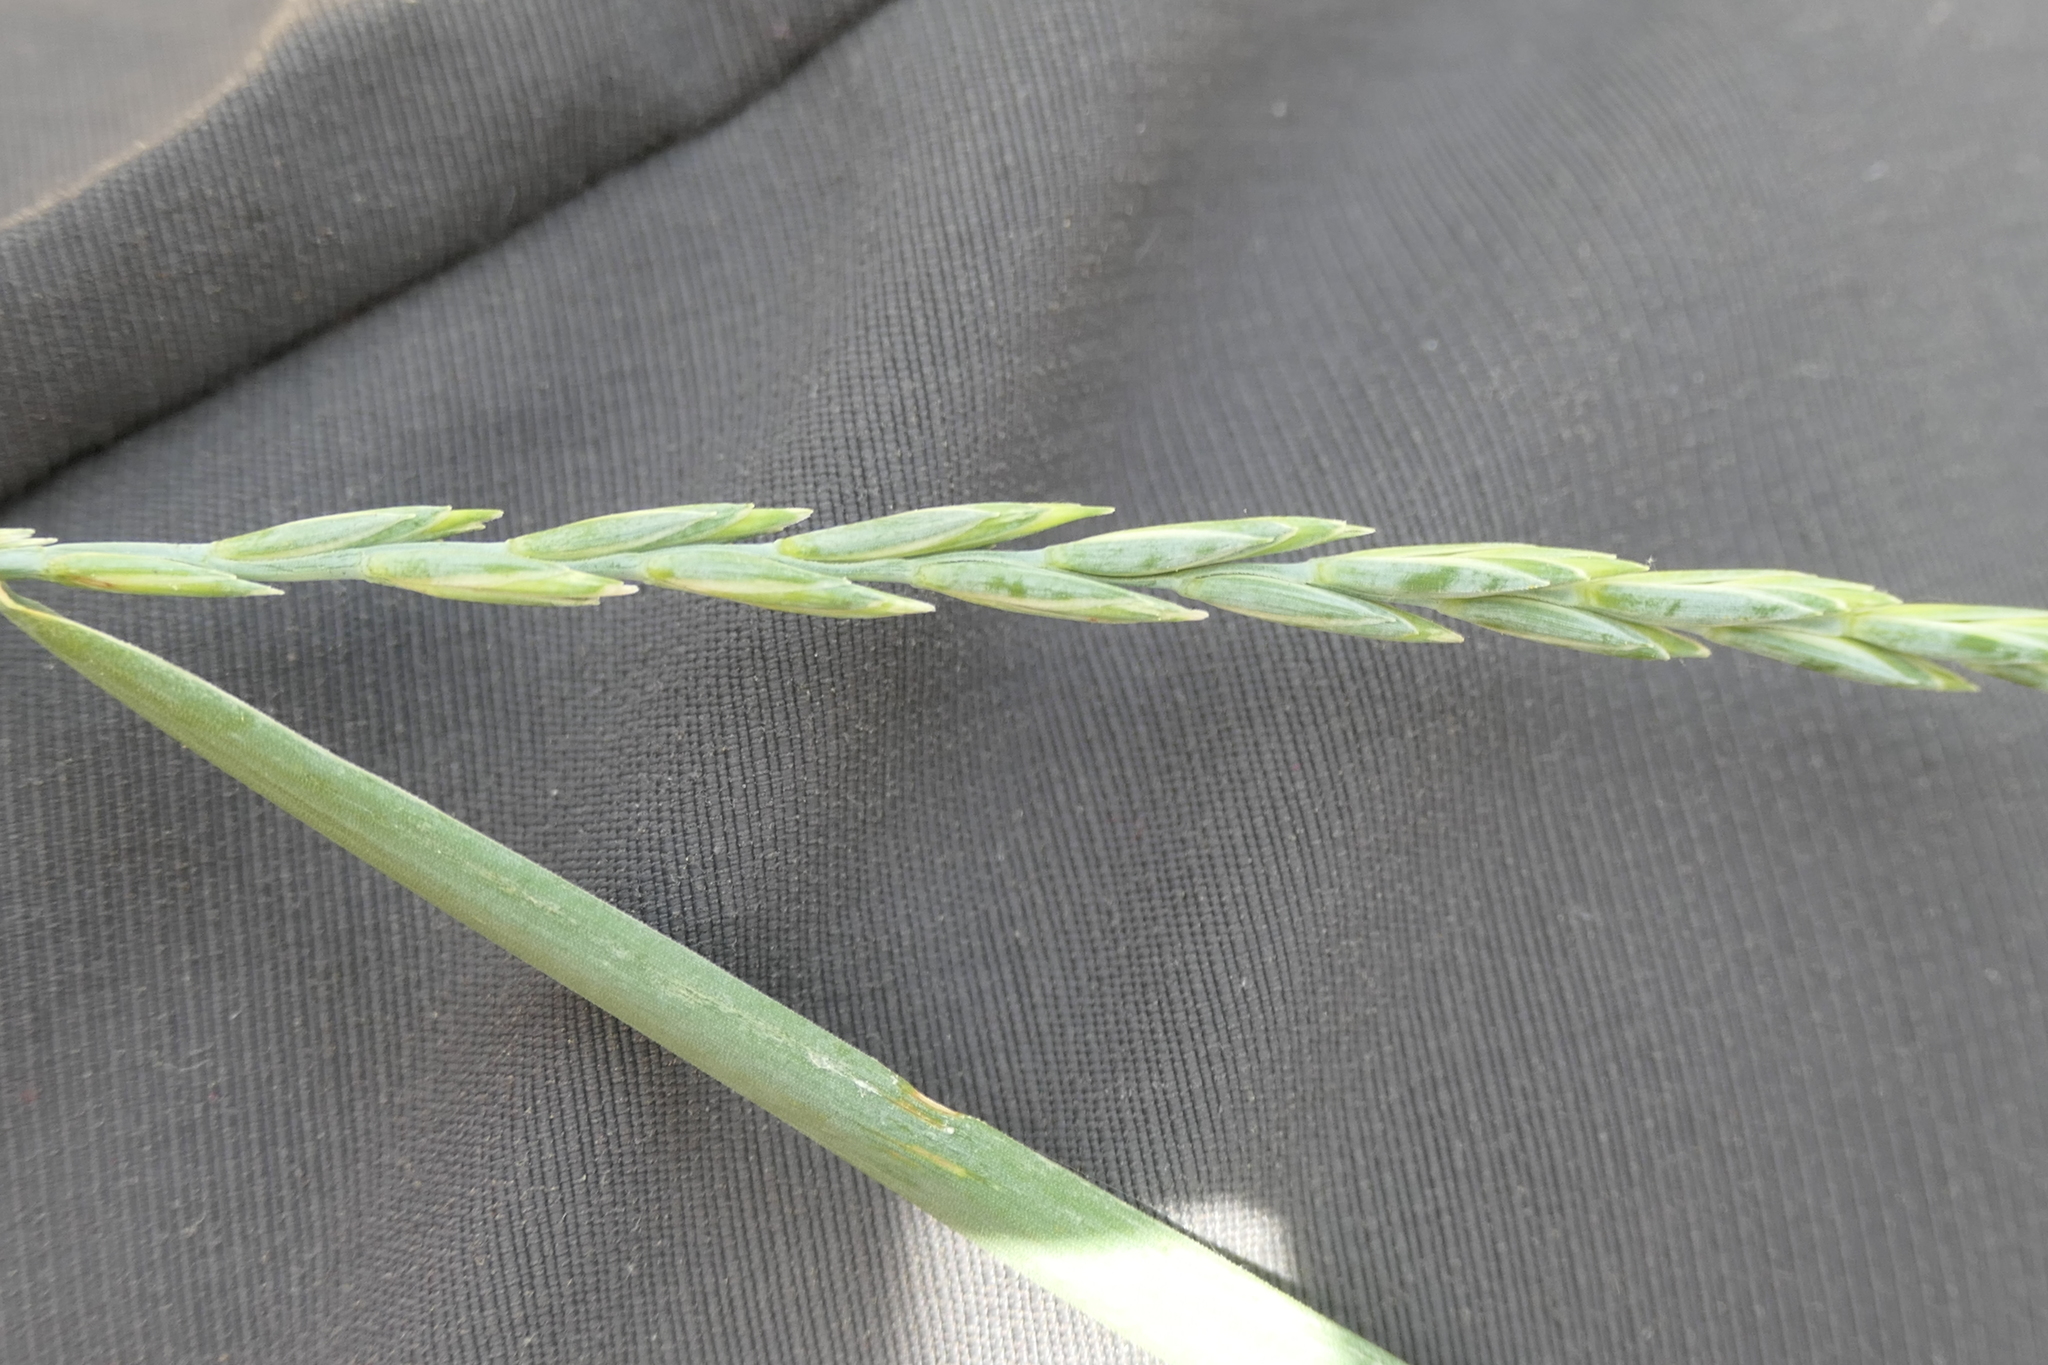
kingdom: Plantae
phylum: Tracheophyta
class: Liliopsida
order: Poales
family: Poaceae
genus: Elymus
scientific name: Elymus repens
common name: Quackgrass
